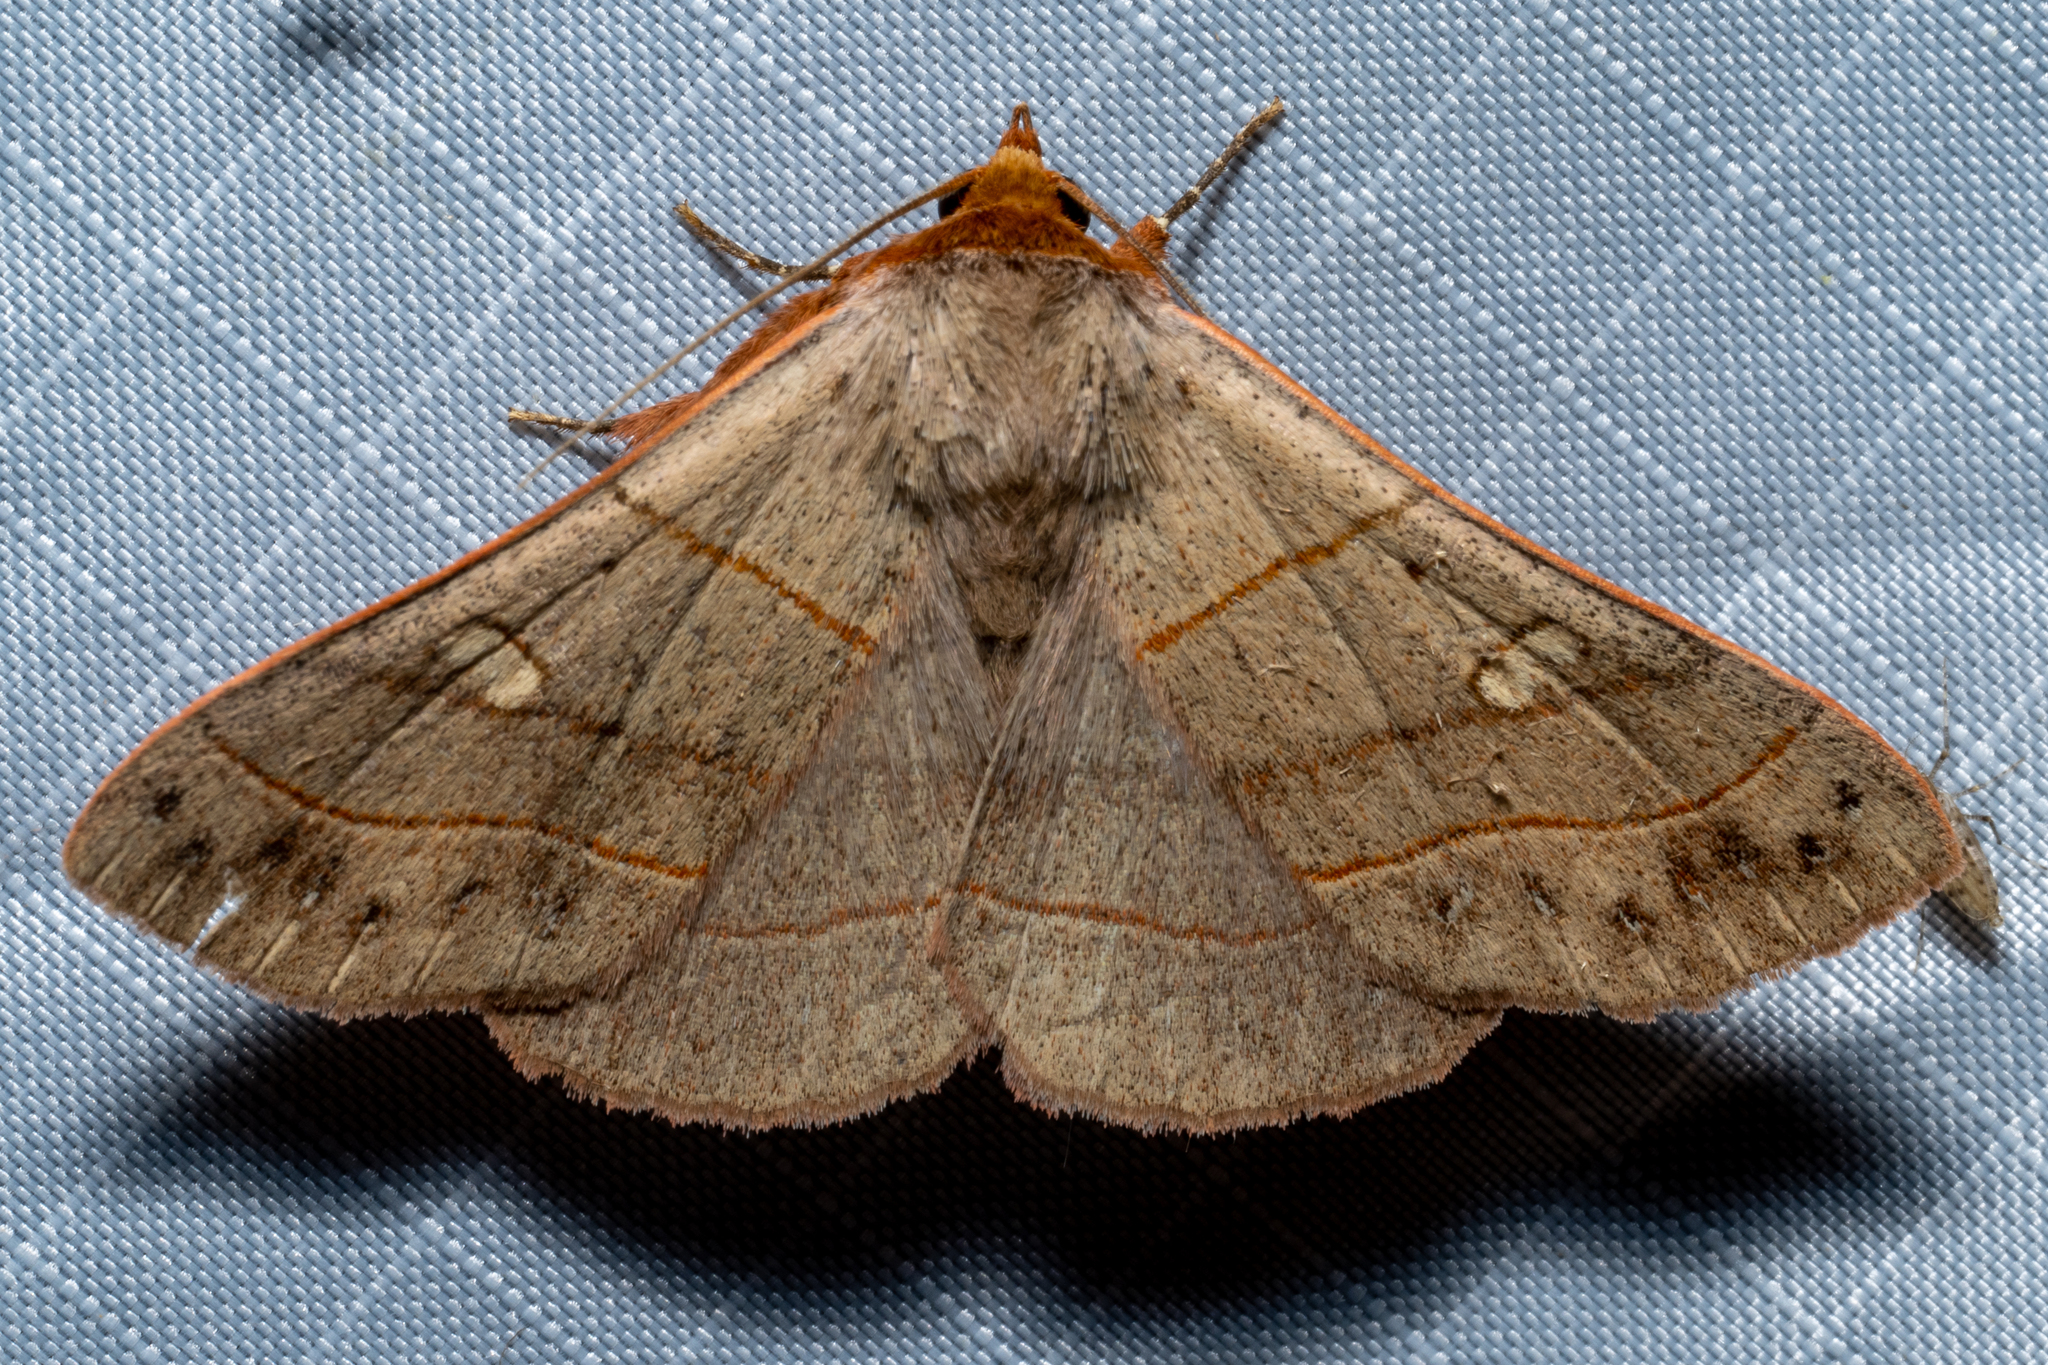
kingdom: Animalia
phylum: Arthropoda
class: Insecta
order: Lepidoptera
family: Erebidae
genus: Panopoda
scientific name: Panopoda rufimargo
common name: Red-lined panopoda moth
